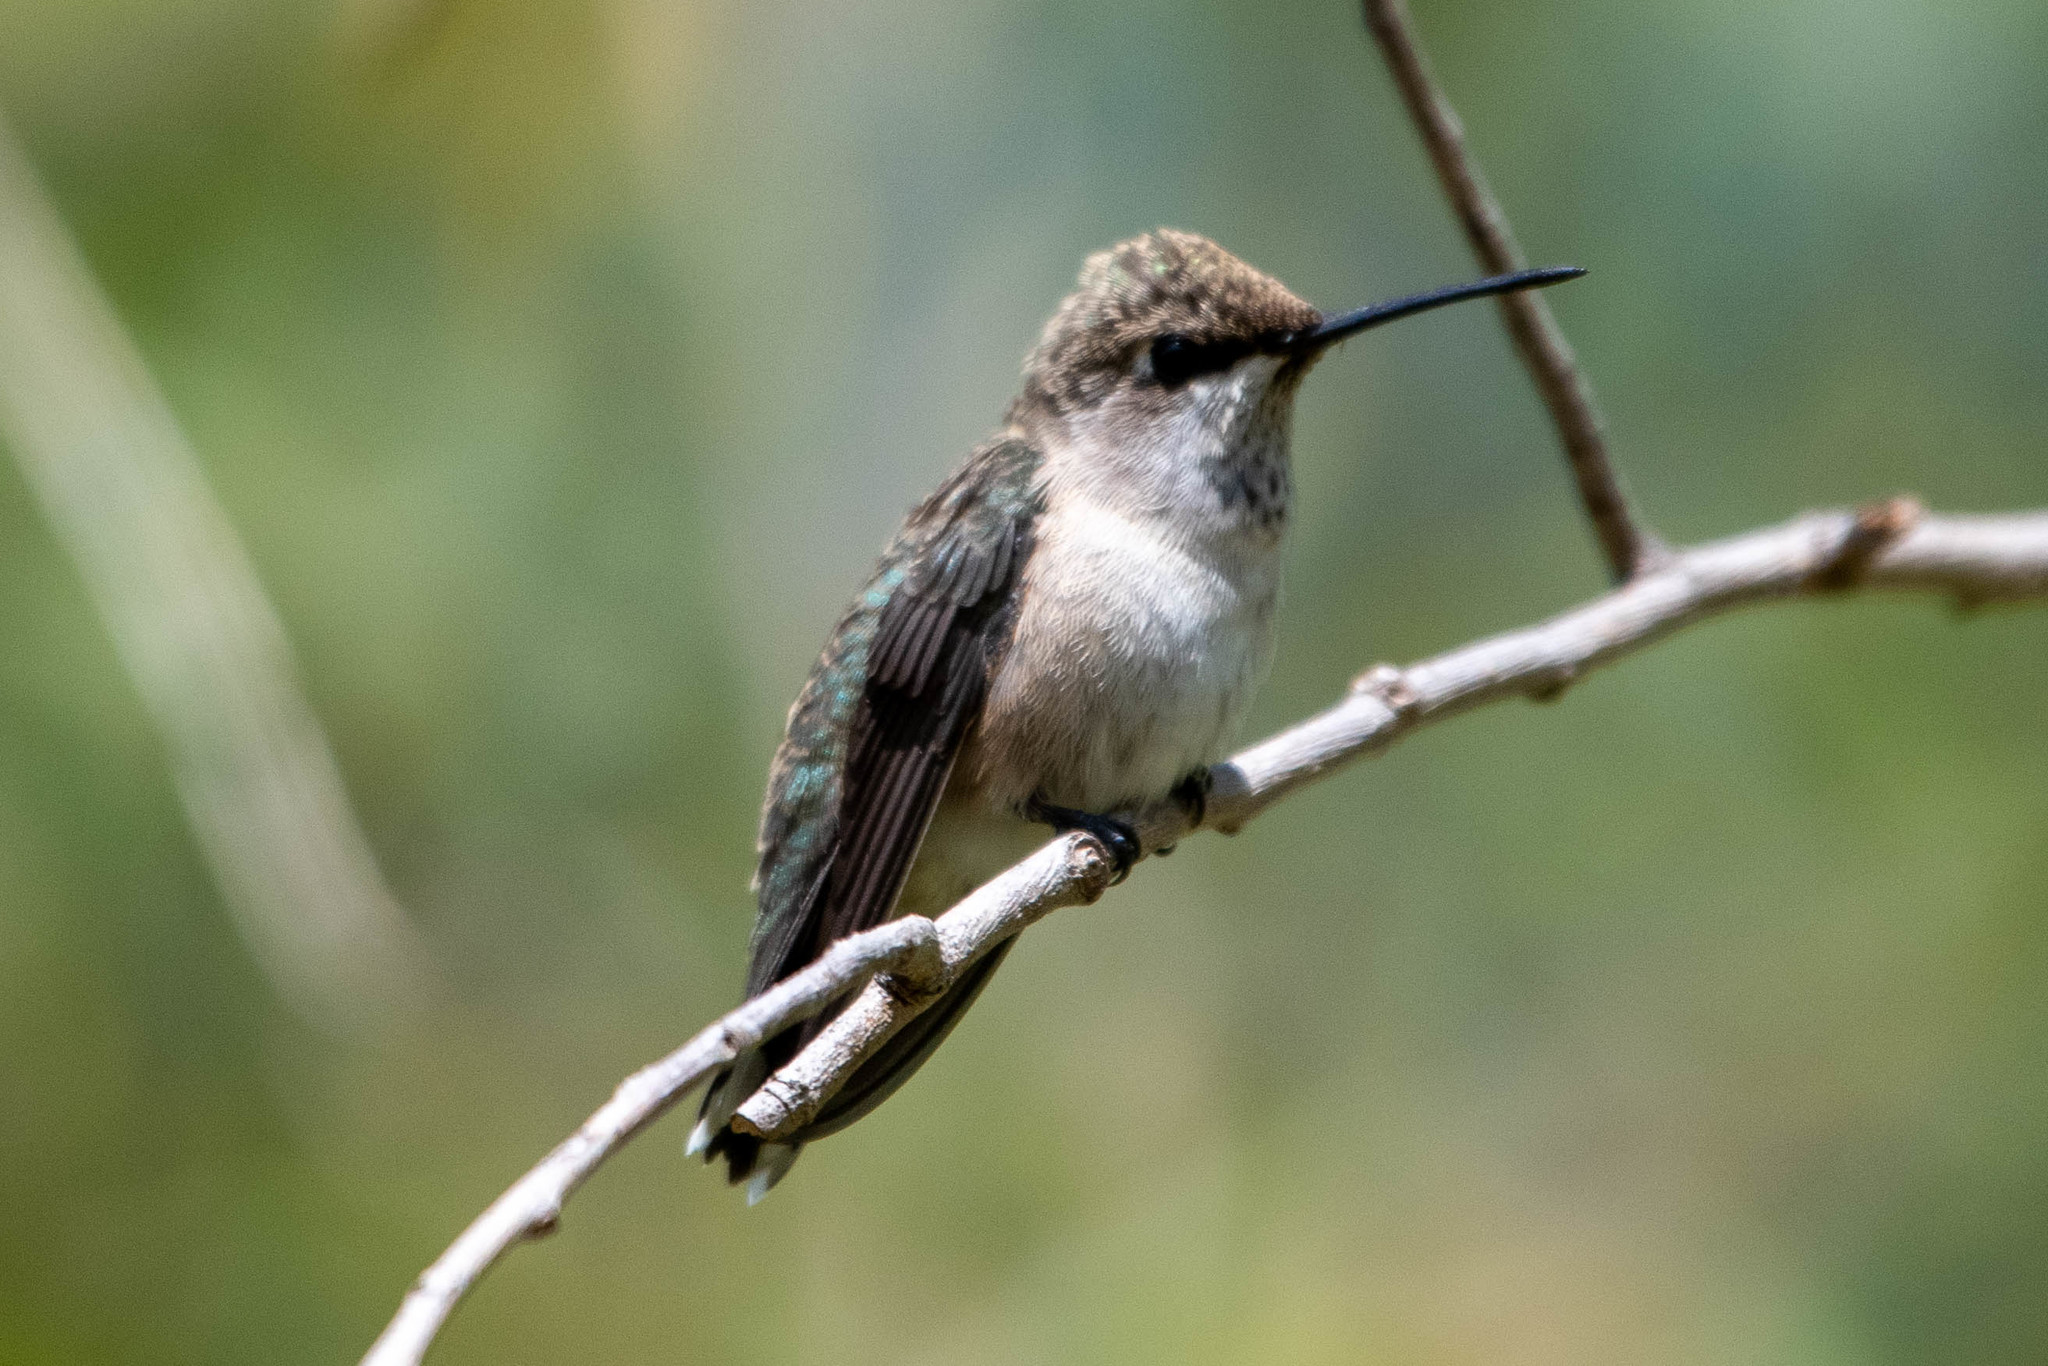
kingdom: Animalia
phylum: Chordata
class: Aves
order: Apodiformes
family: Trochilidae
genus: Archilochus
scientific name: Archilochus alexandri
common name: Black-chinned hummingbird
